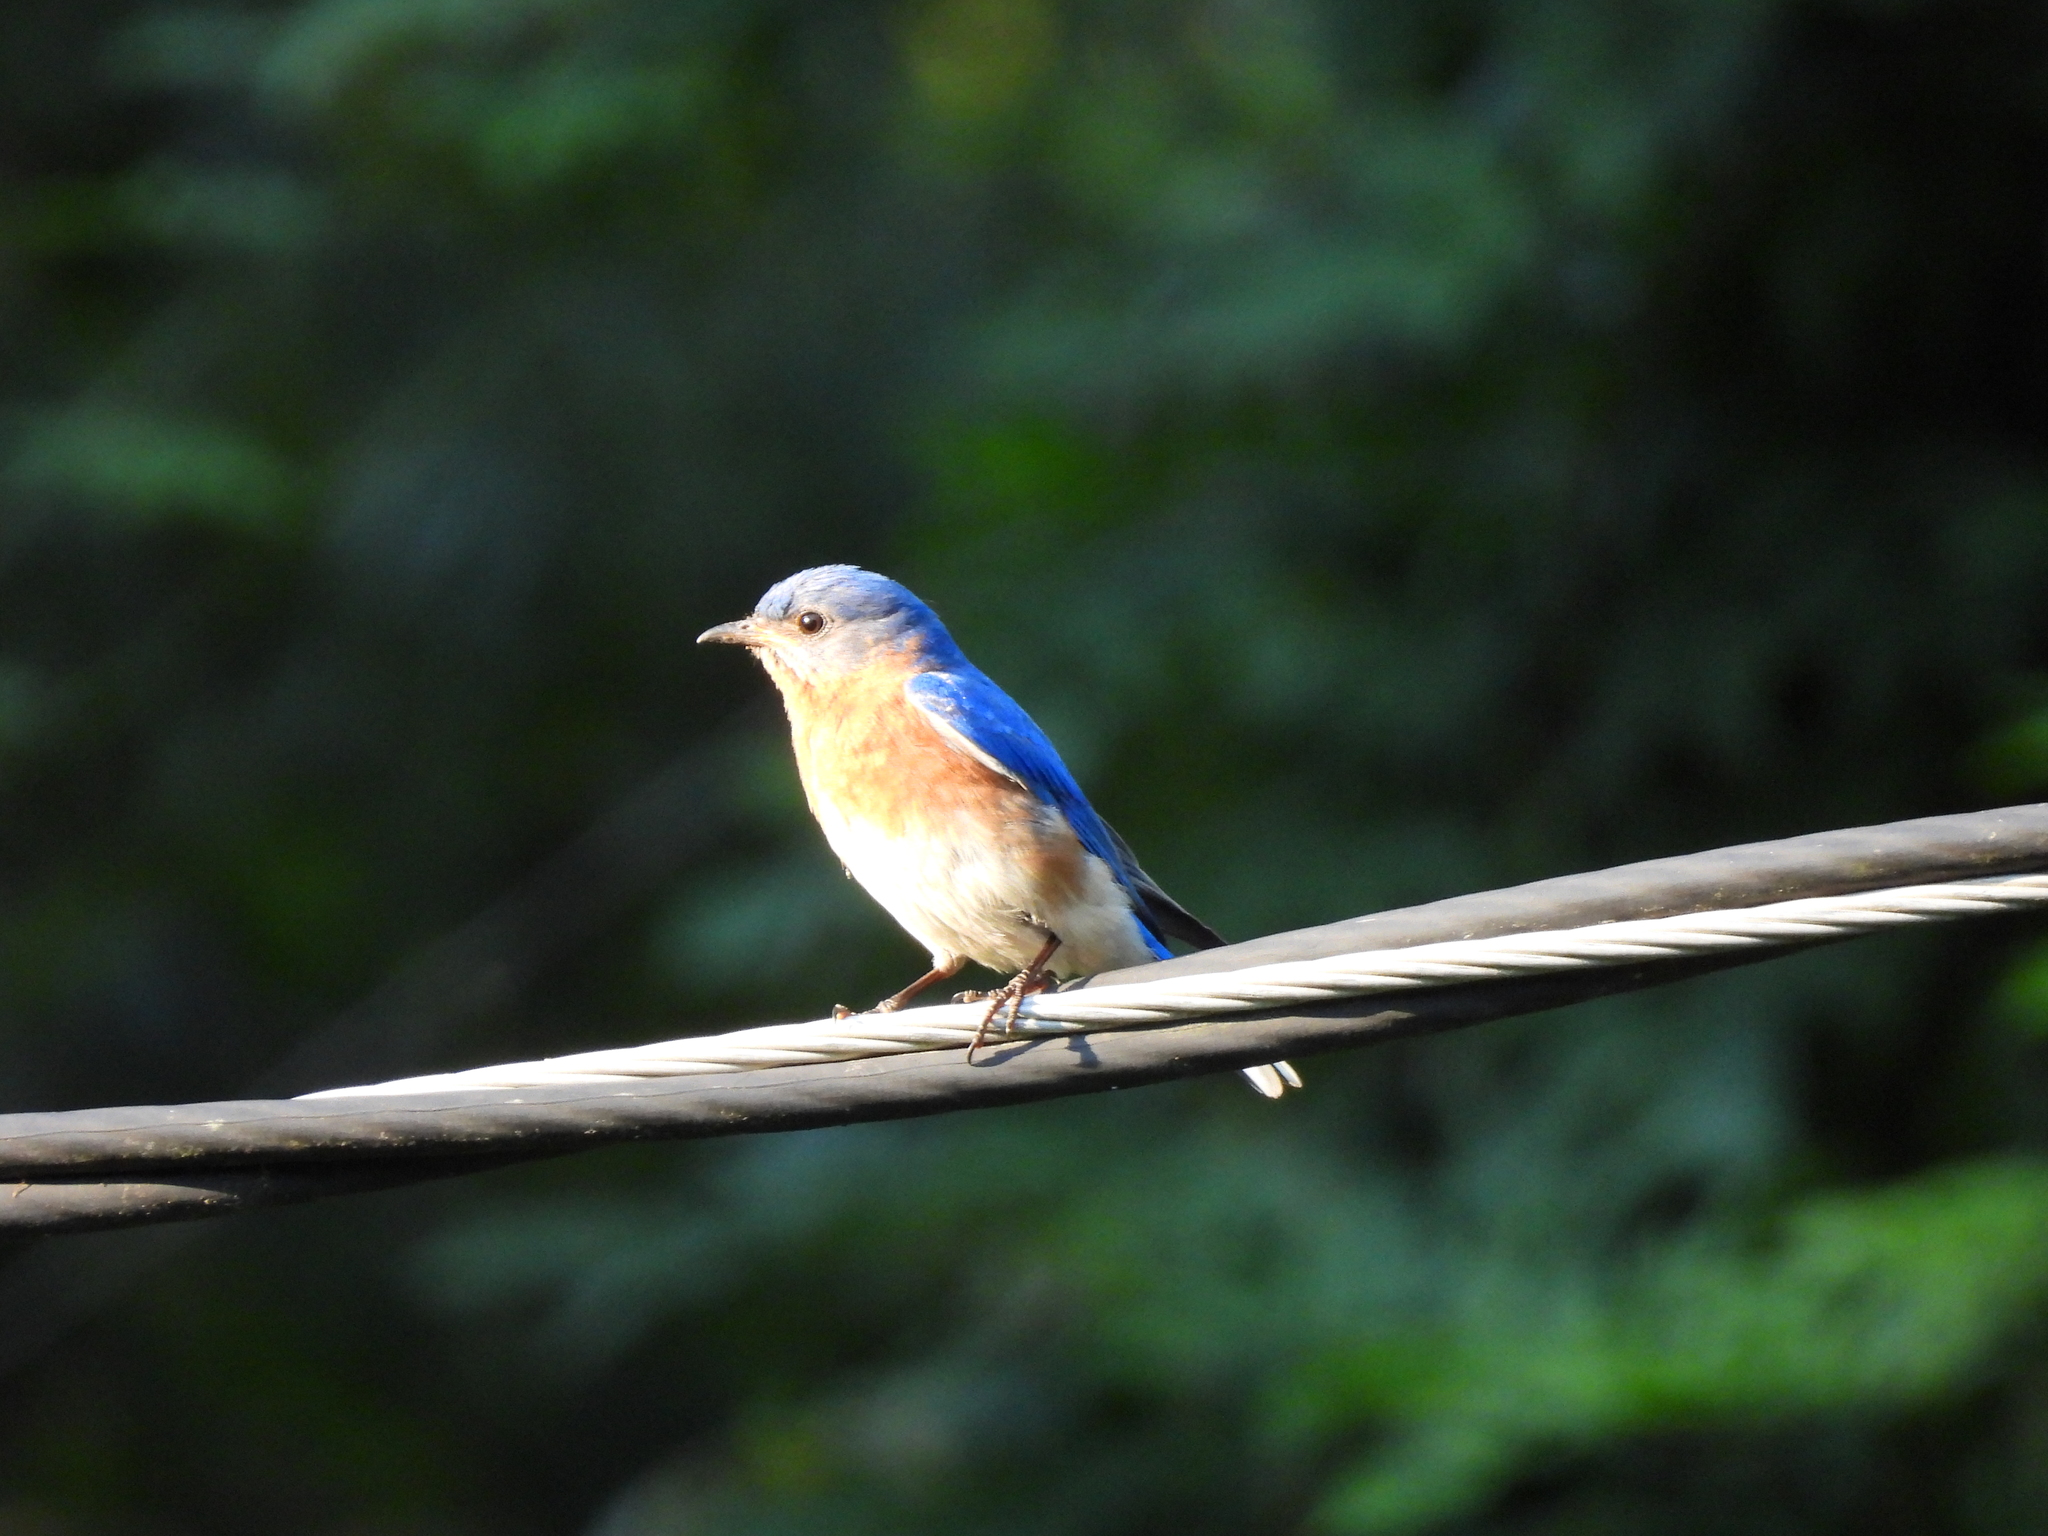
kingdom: Animalia
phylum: Chordata
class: Aves
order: Passeriformes
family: Turdidae
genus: Sialia
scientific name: Sialia sialis
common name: Eastern bluebird
